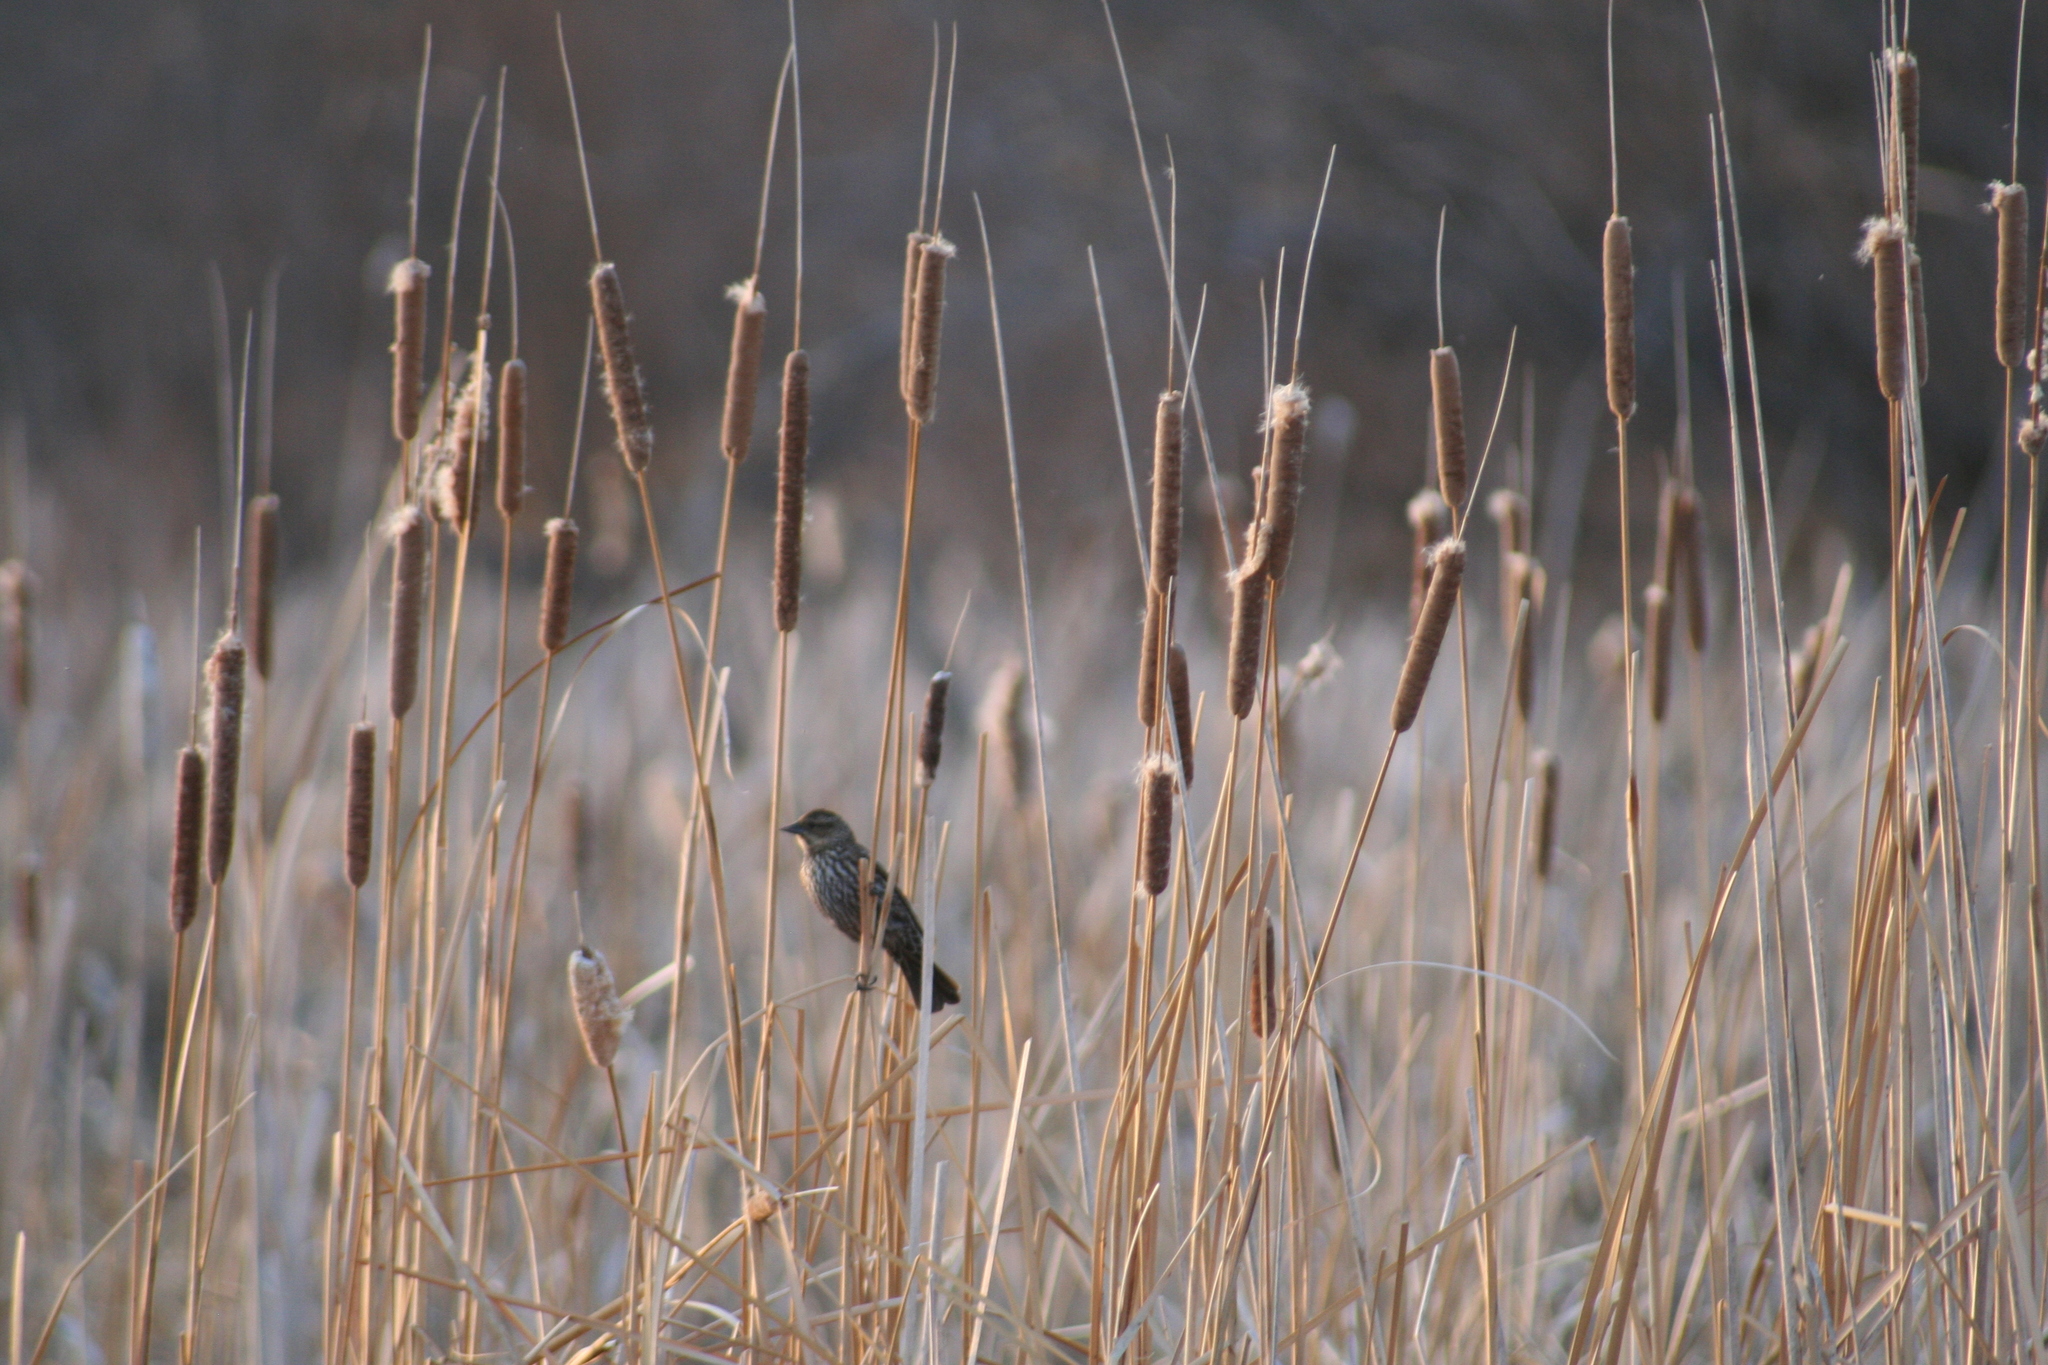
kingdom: Animalia
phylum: Chordata
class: Aves
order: Passeriformes
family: Icteridae
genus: Agelaius
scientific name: Agelaius phoeniceus
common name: Red-winged blackbird
